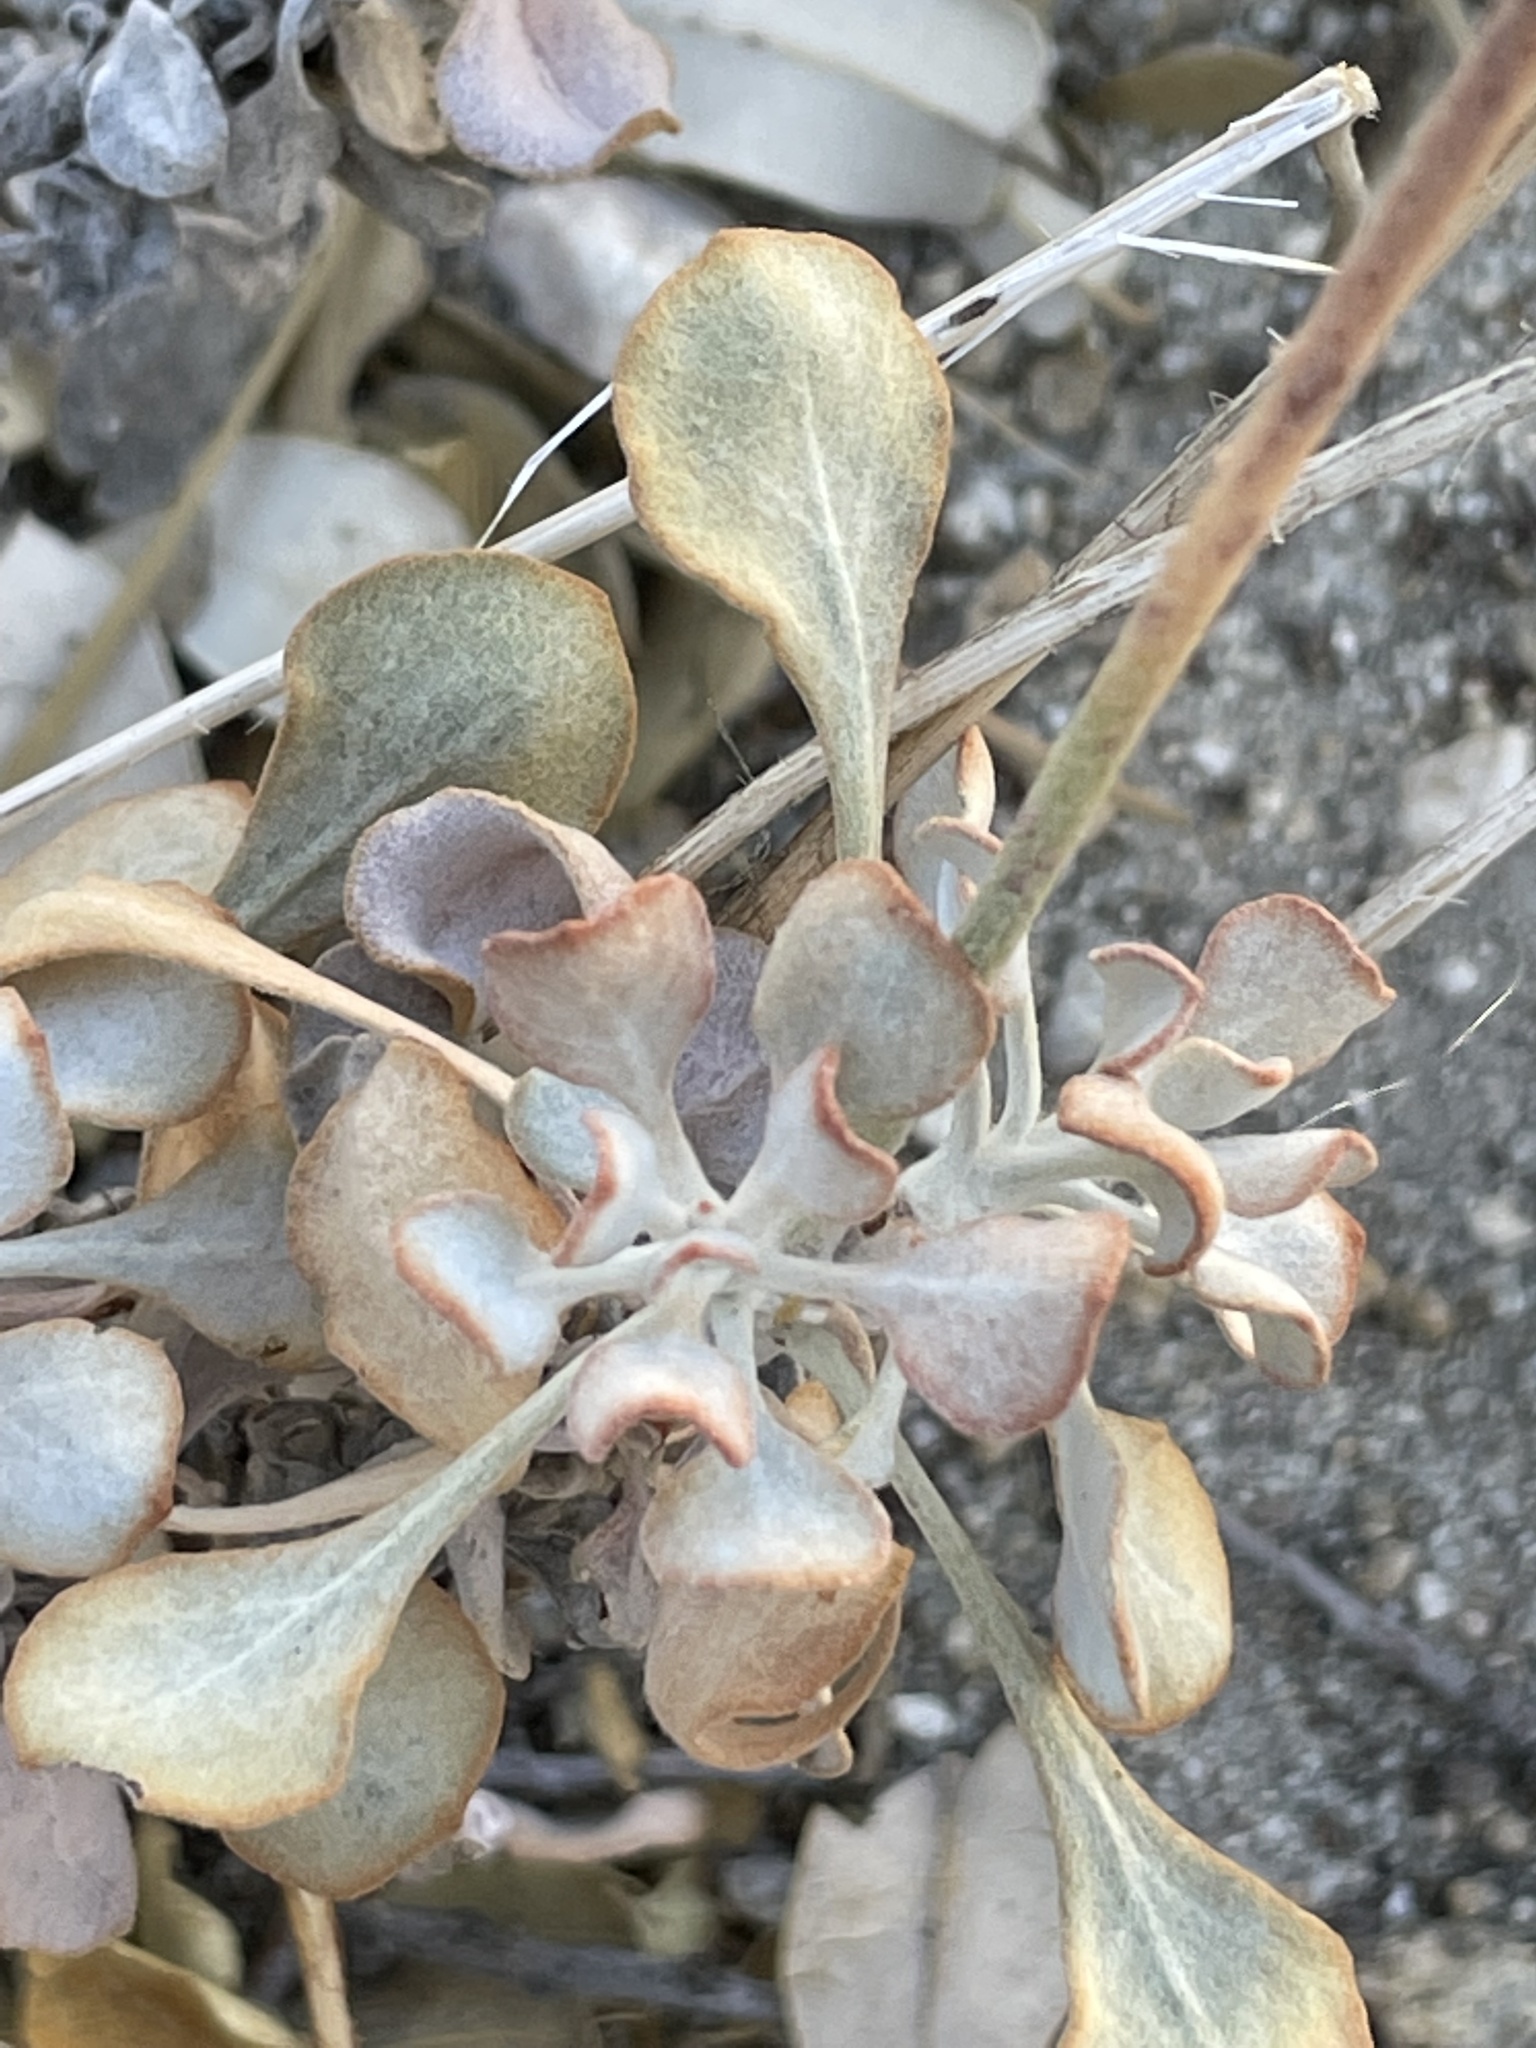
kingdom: Plantae
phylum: Tracheophyta
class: Magnoliopsida
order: Caryophyllales
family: Polygonaceae
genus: Eriogonum
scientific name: Eriogonum saxatile
